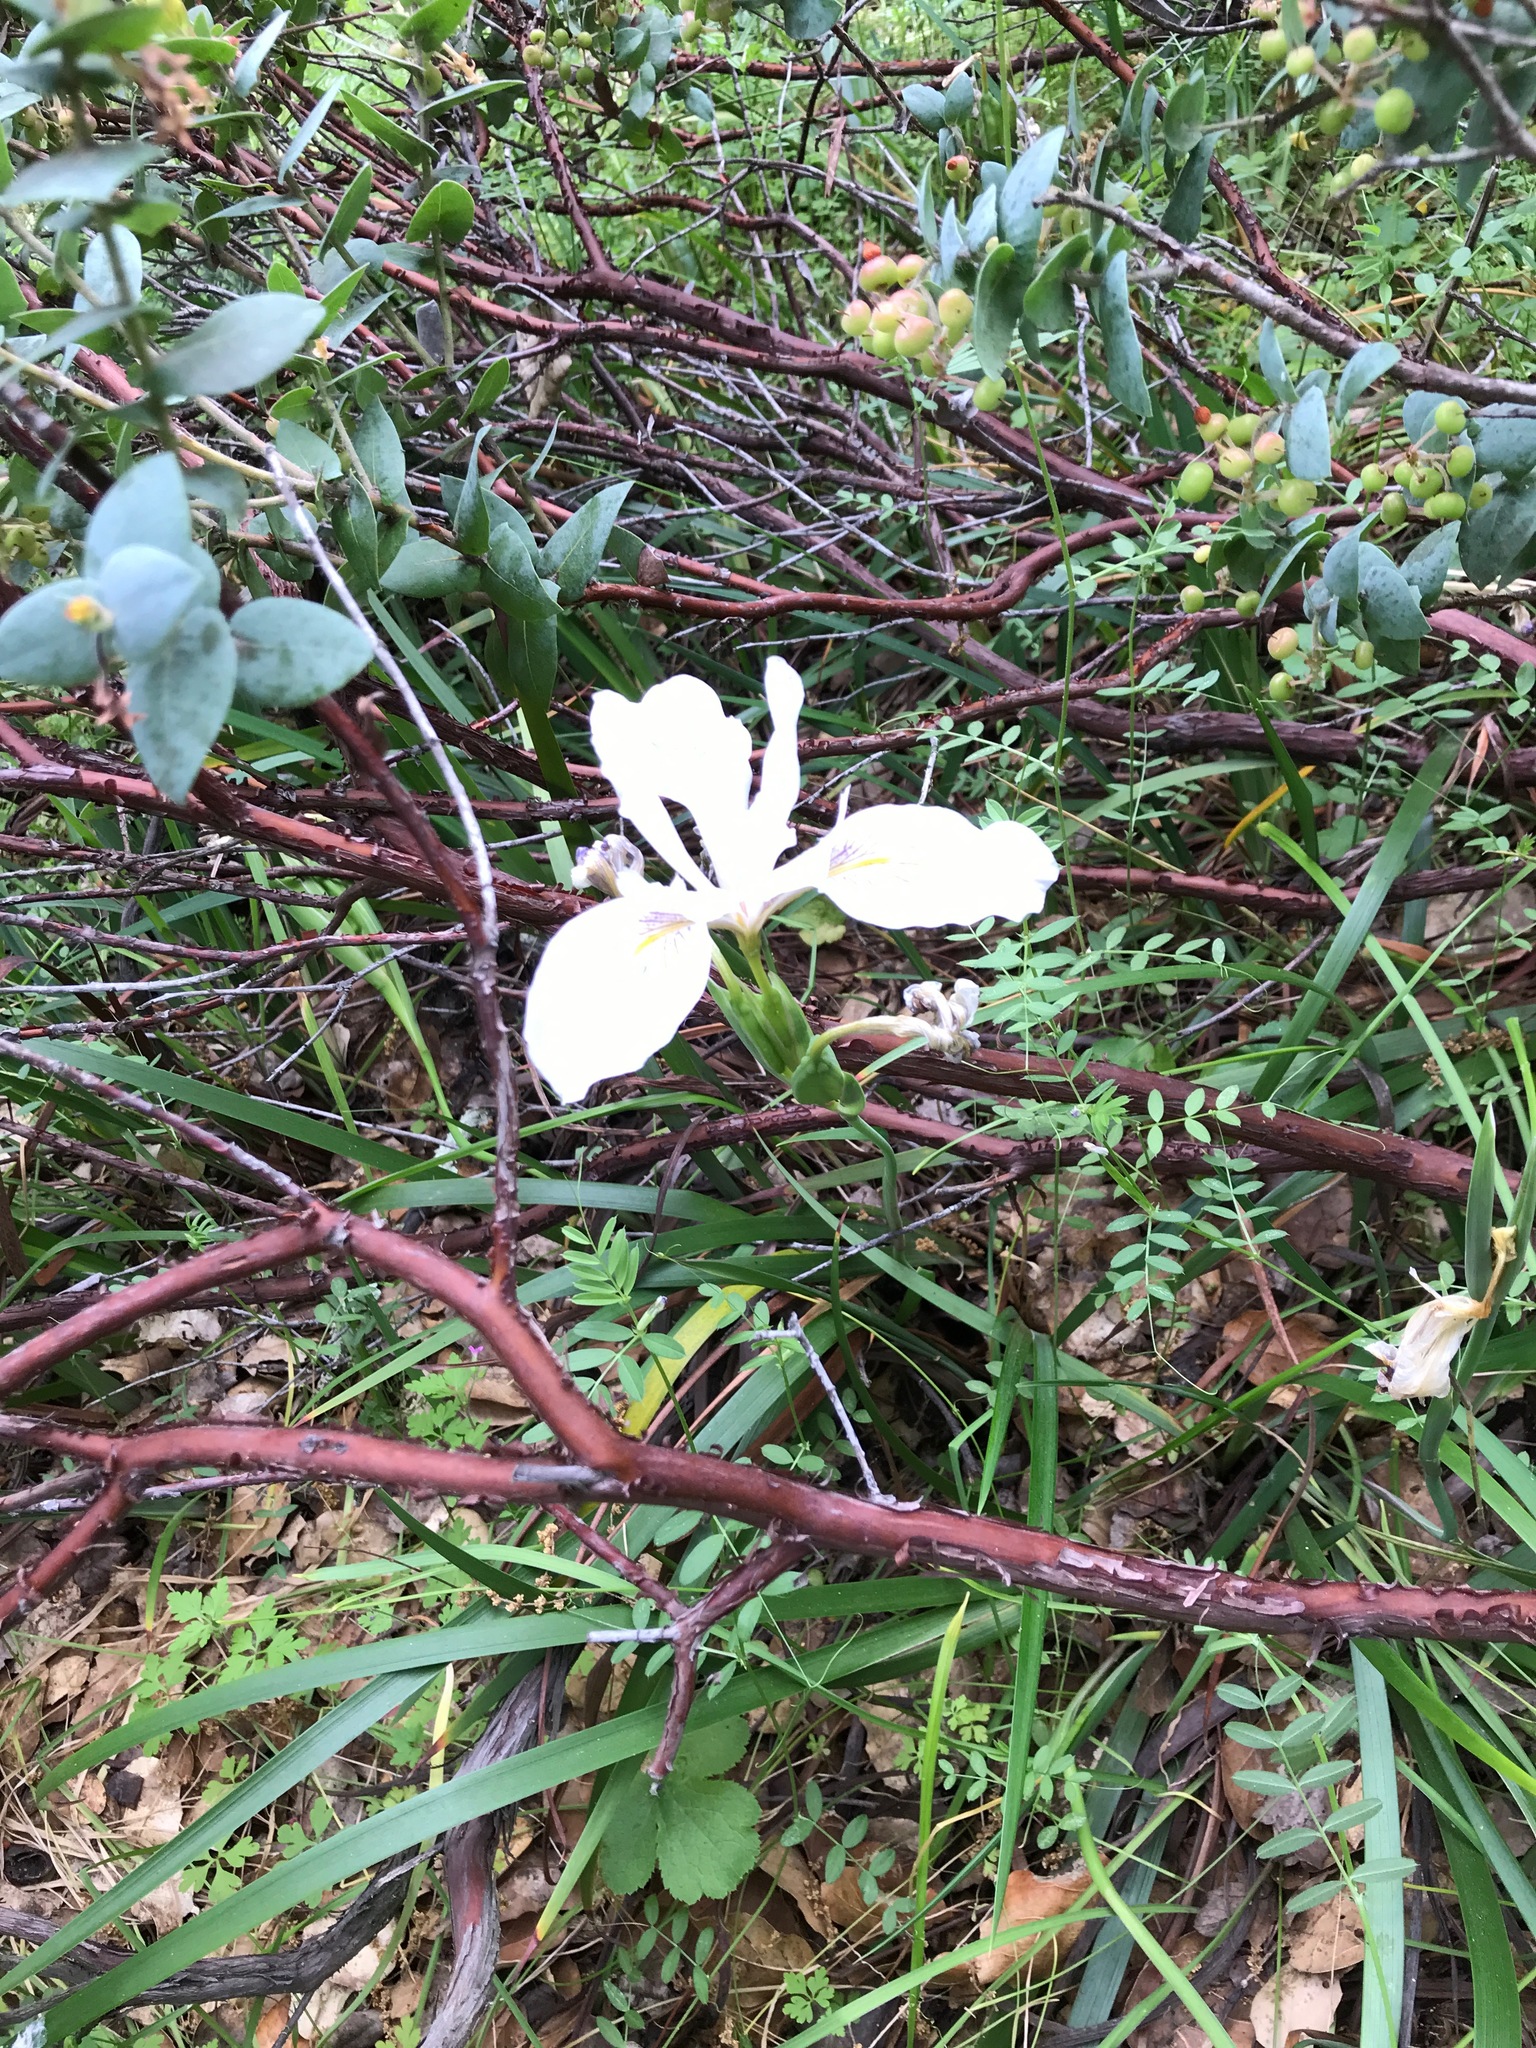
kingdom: Plantae
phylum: Tracheophyta
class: Liliopsida
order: Asparagales
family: Iridaceae
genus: Iris
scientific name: Iris douglasiana
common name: Marin iris
